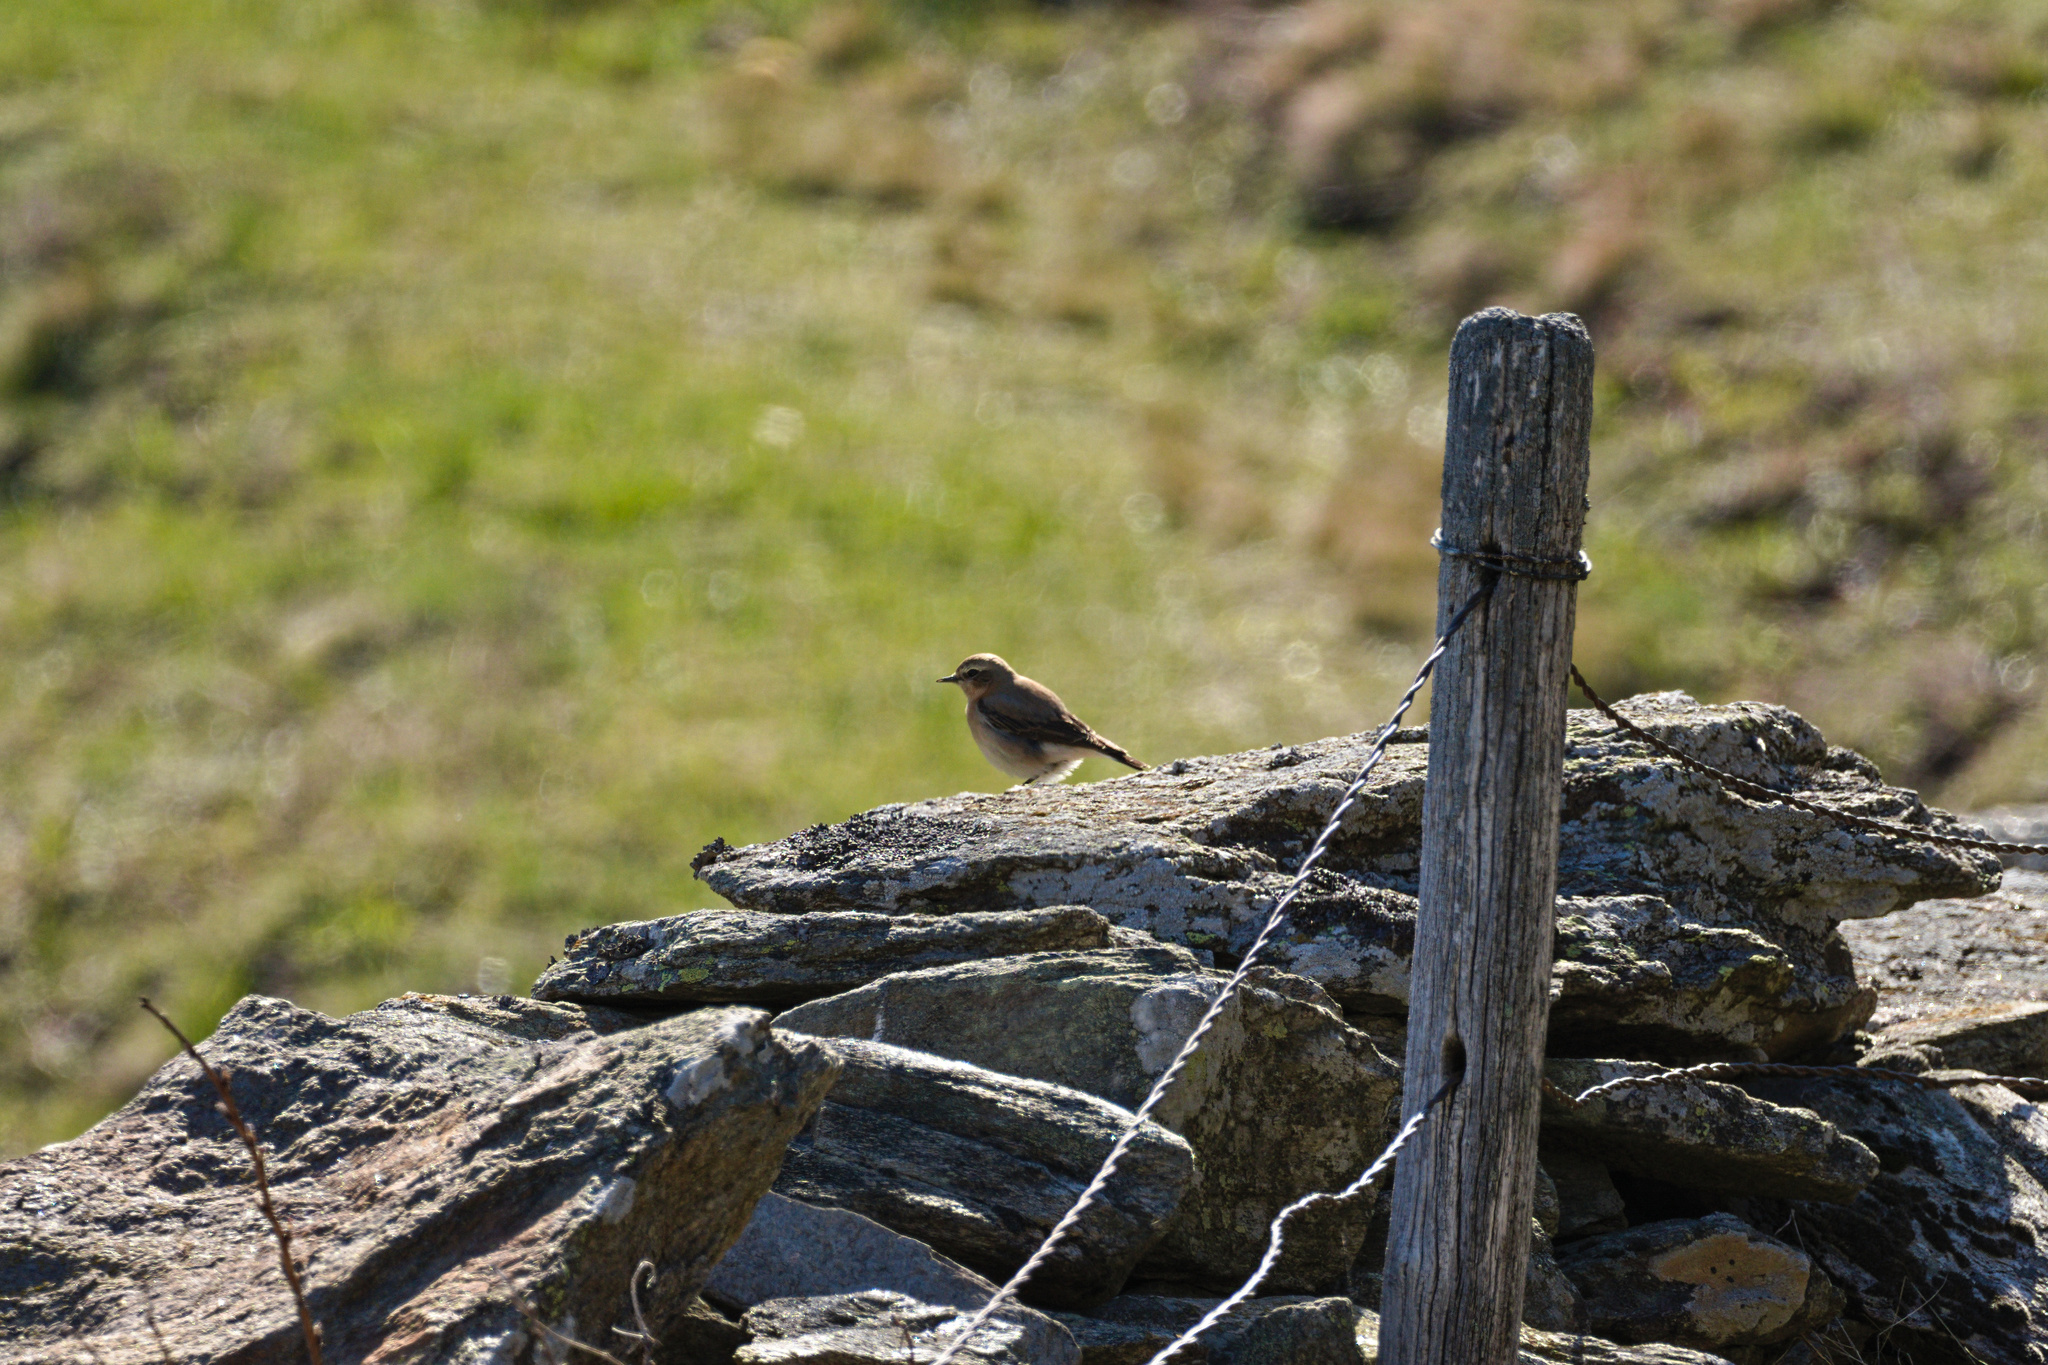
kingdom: Animalia
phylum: Chordata
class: Aves
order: Passeriformes
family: Muscicapidae
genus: Oenanthe
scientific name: Oenanthe oenanthe
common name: Northern wheatear
